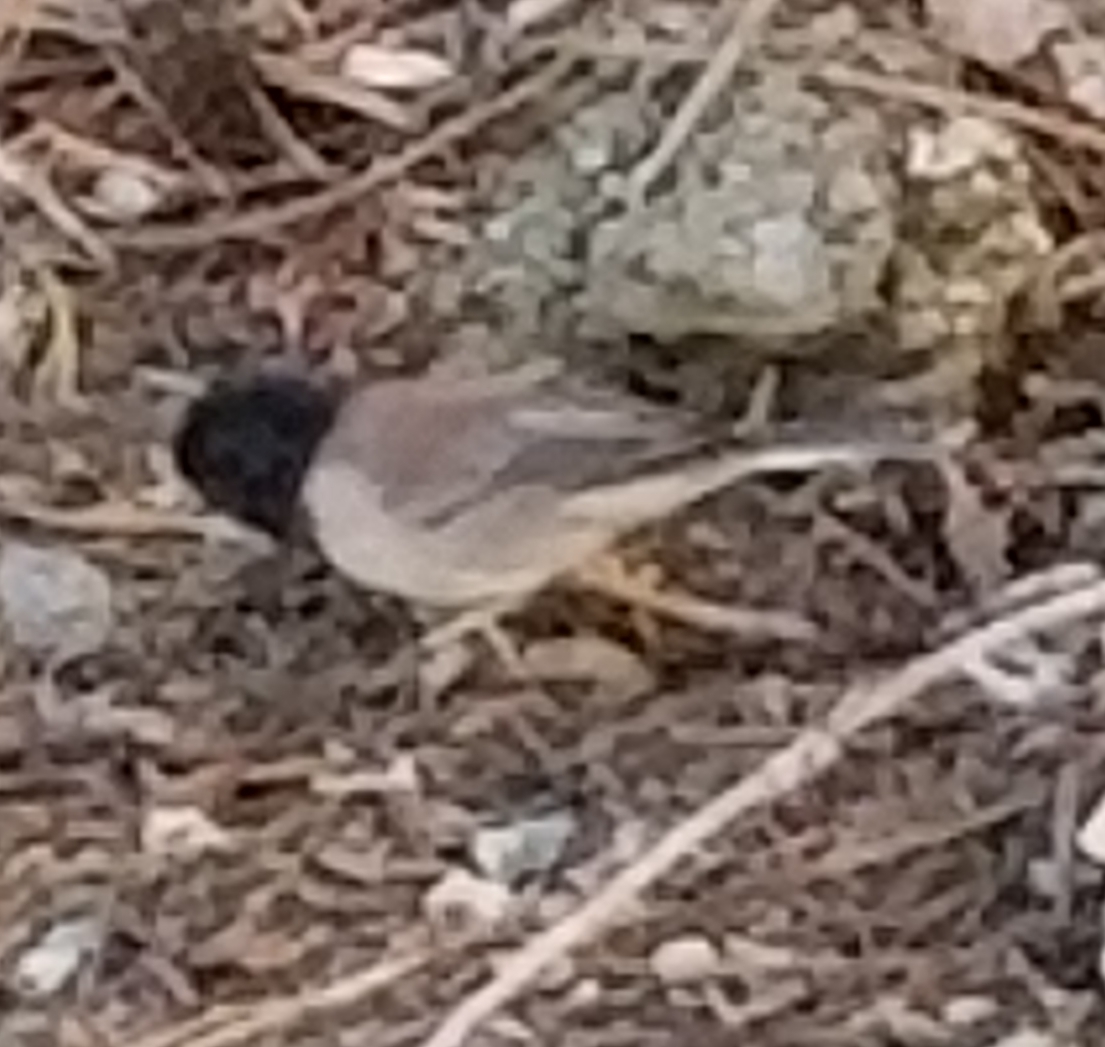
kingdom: Animalia
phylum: Chordata
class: Aves
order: Passeriformes
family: Passerellidae
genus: Junco
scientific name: Junco hyemalis
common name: Dark-eyed junco
